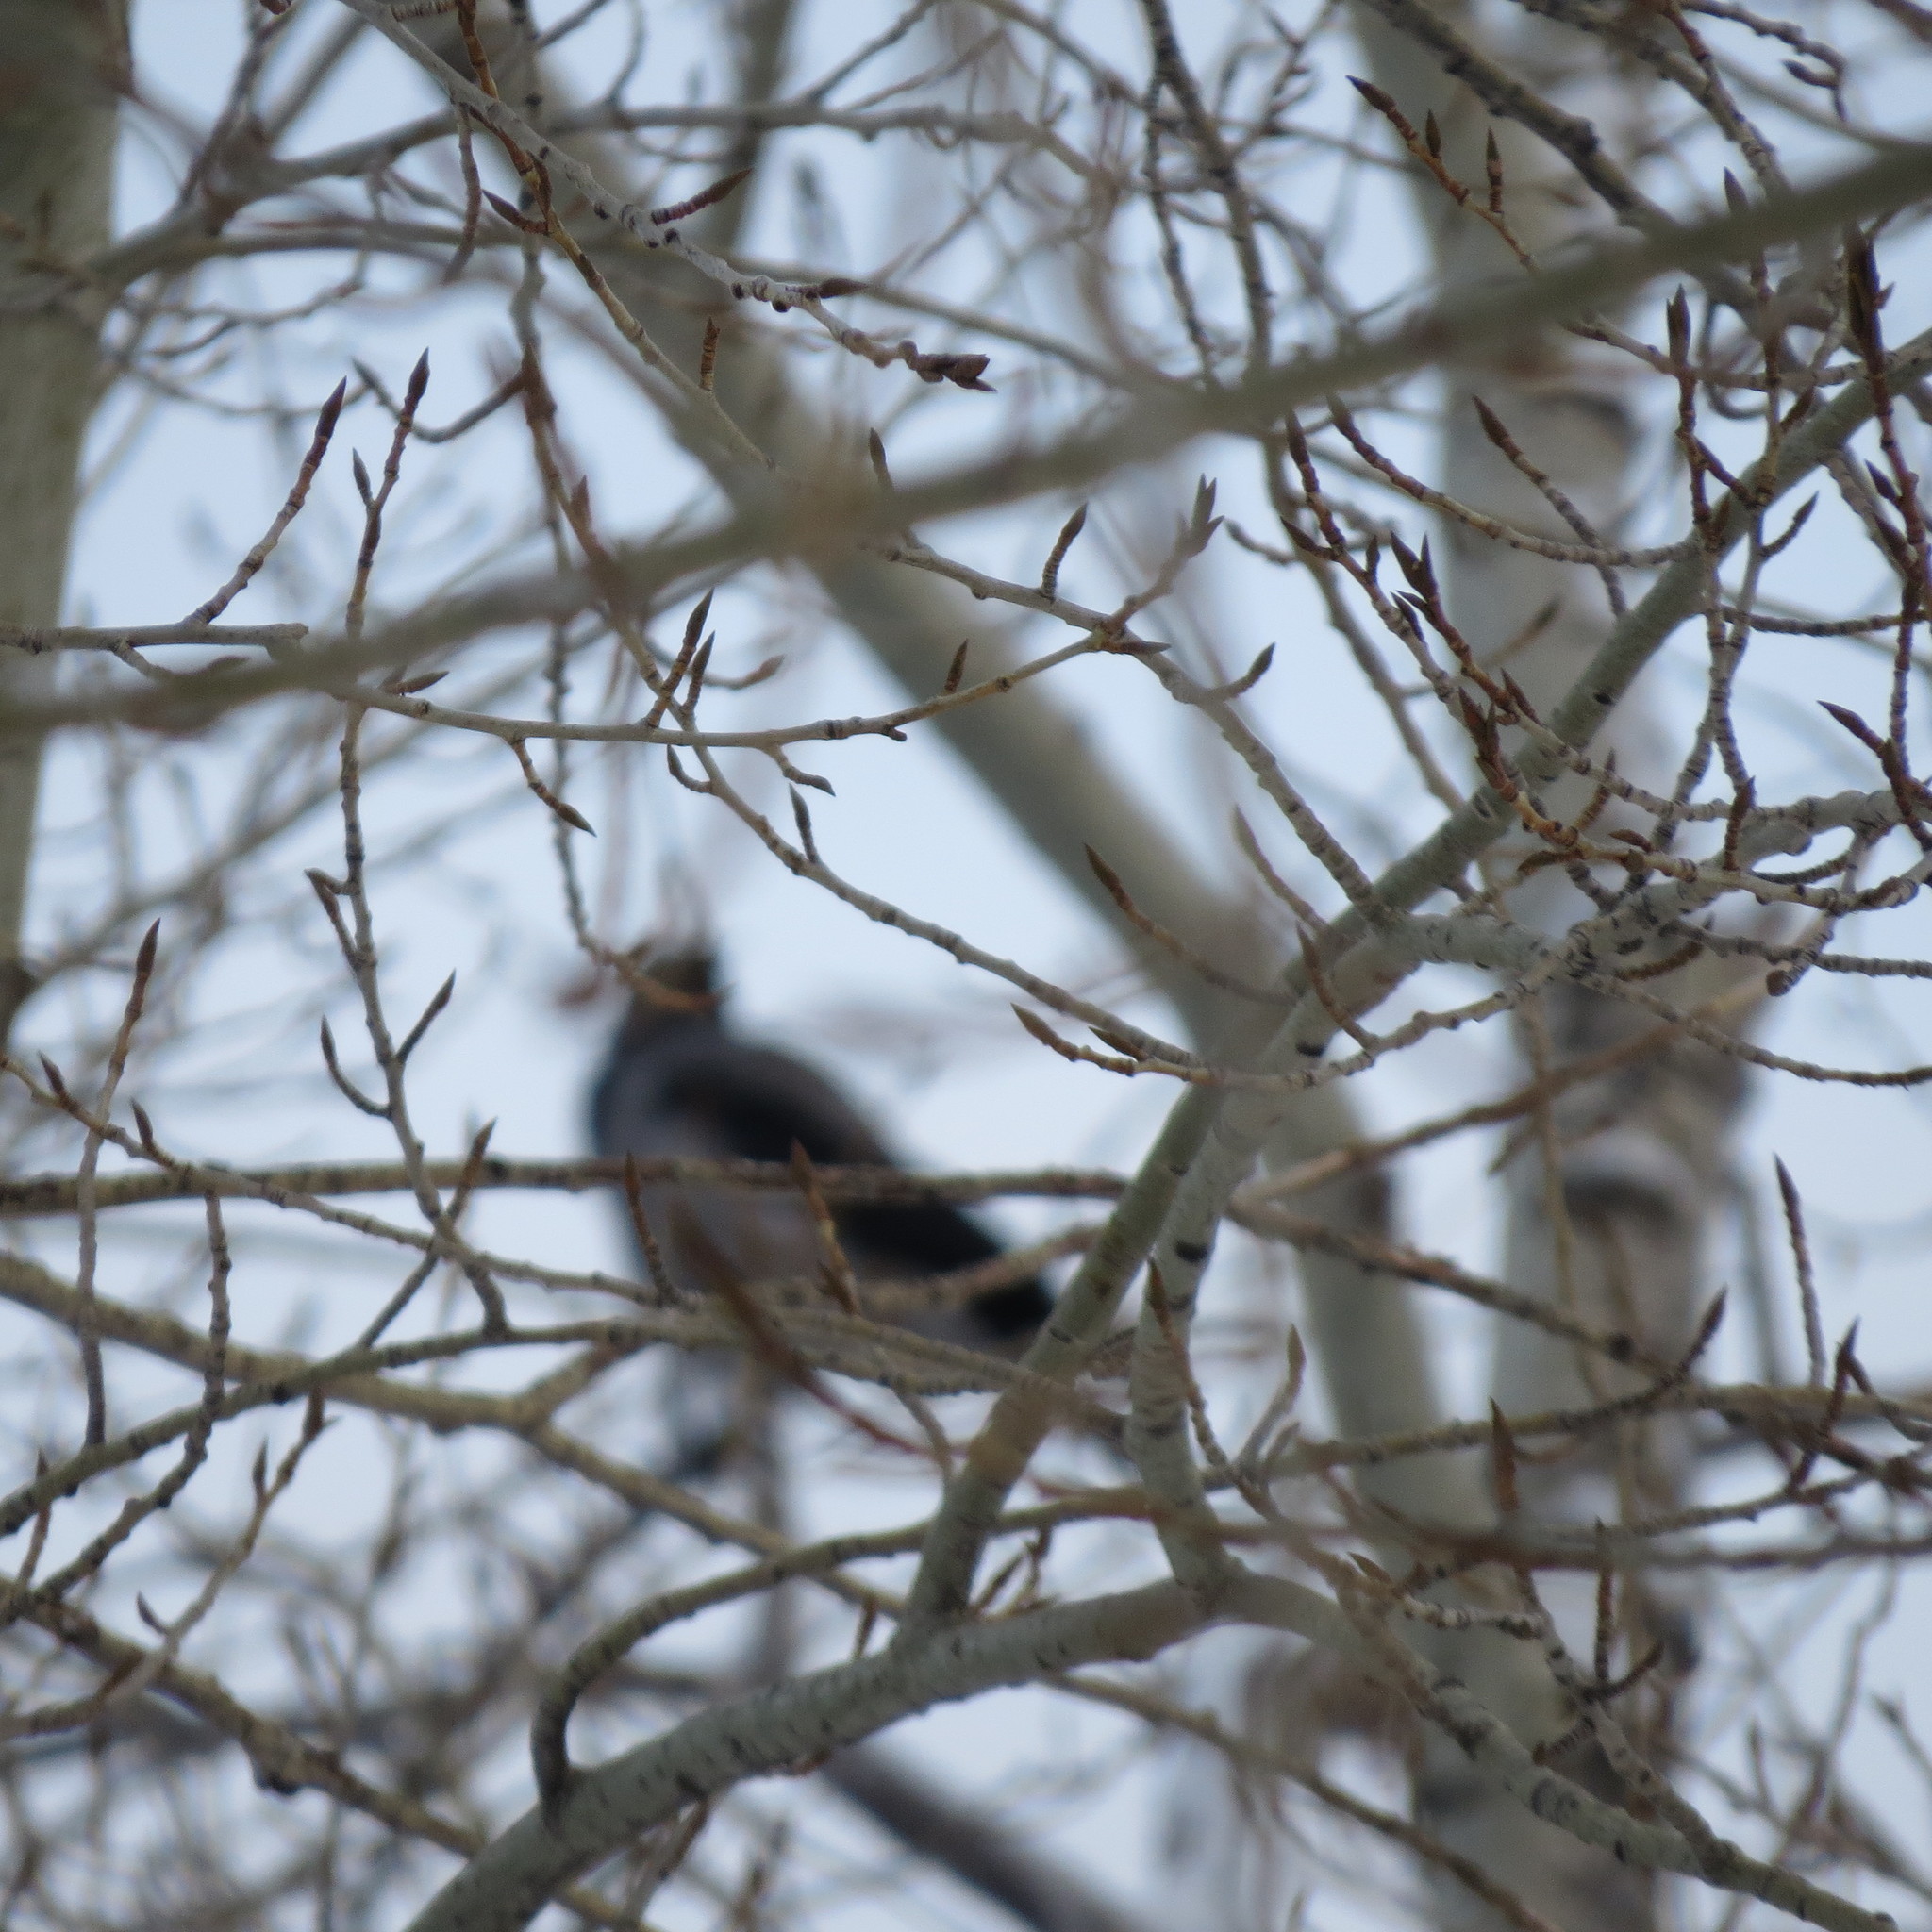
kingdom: Animalia
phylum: Chordata
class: Aves
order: Passeriformes
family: Corvidae
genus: Corvus
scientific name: Corvus cornix
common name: Hooded crow
